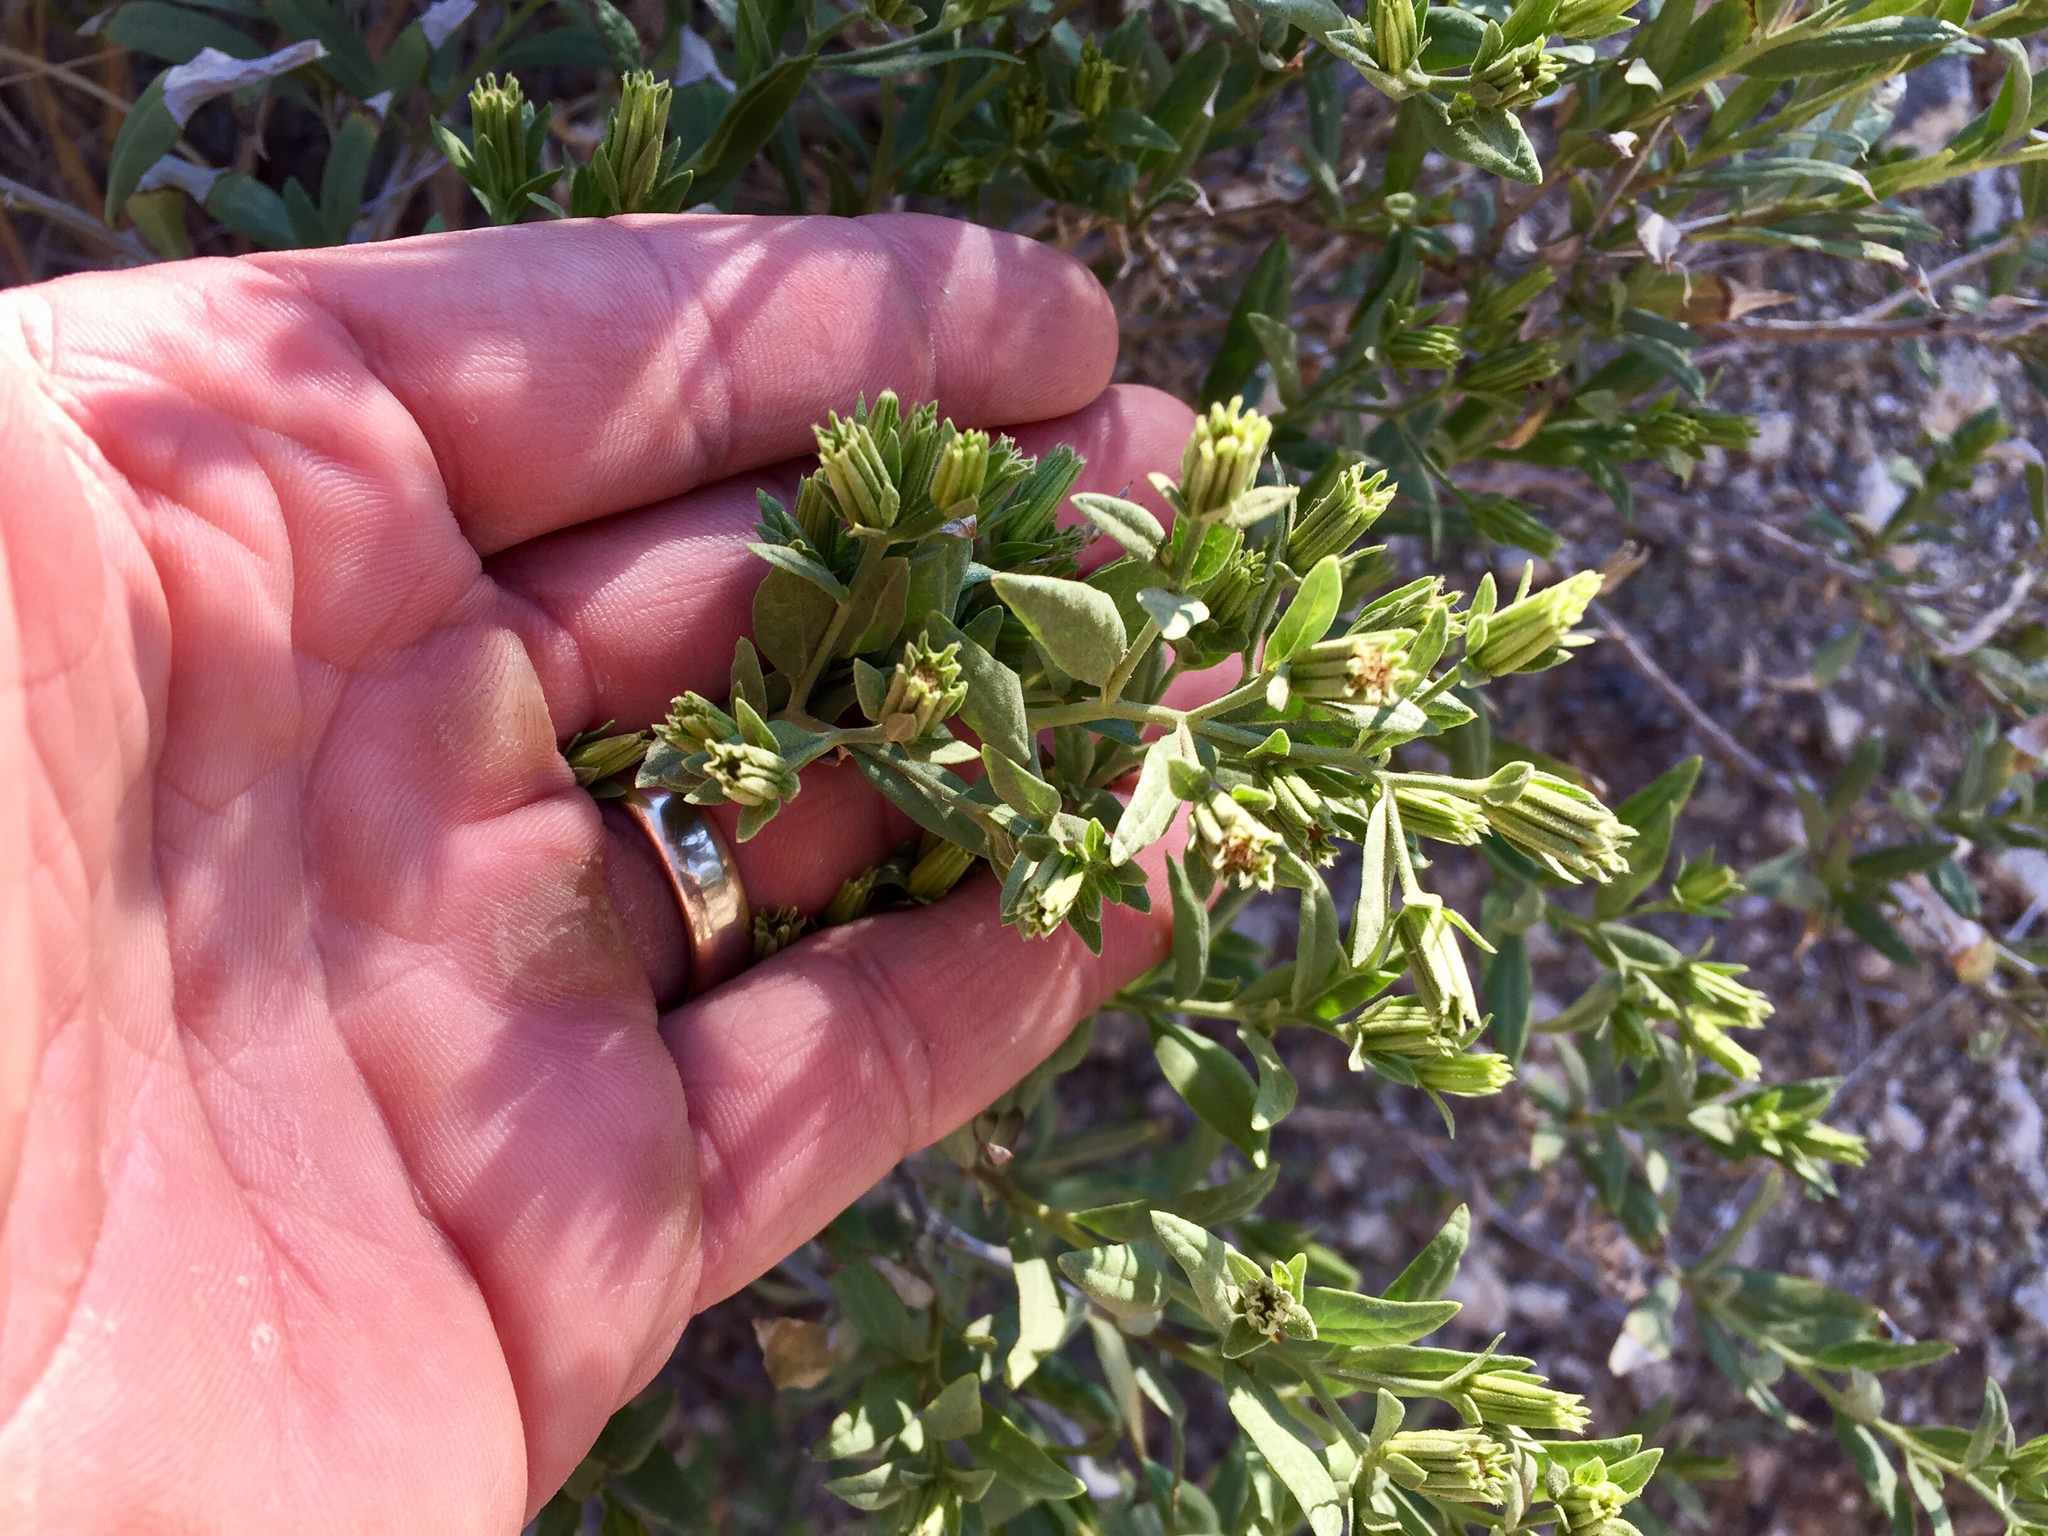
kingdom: Plantae
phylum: Tracheophyta
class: Magnoliopsida
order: Asterales
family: Asteraceae
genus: Trixis
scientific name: Trixis californica
